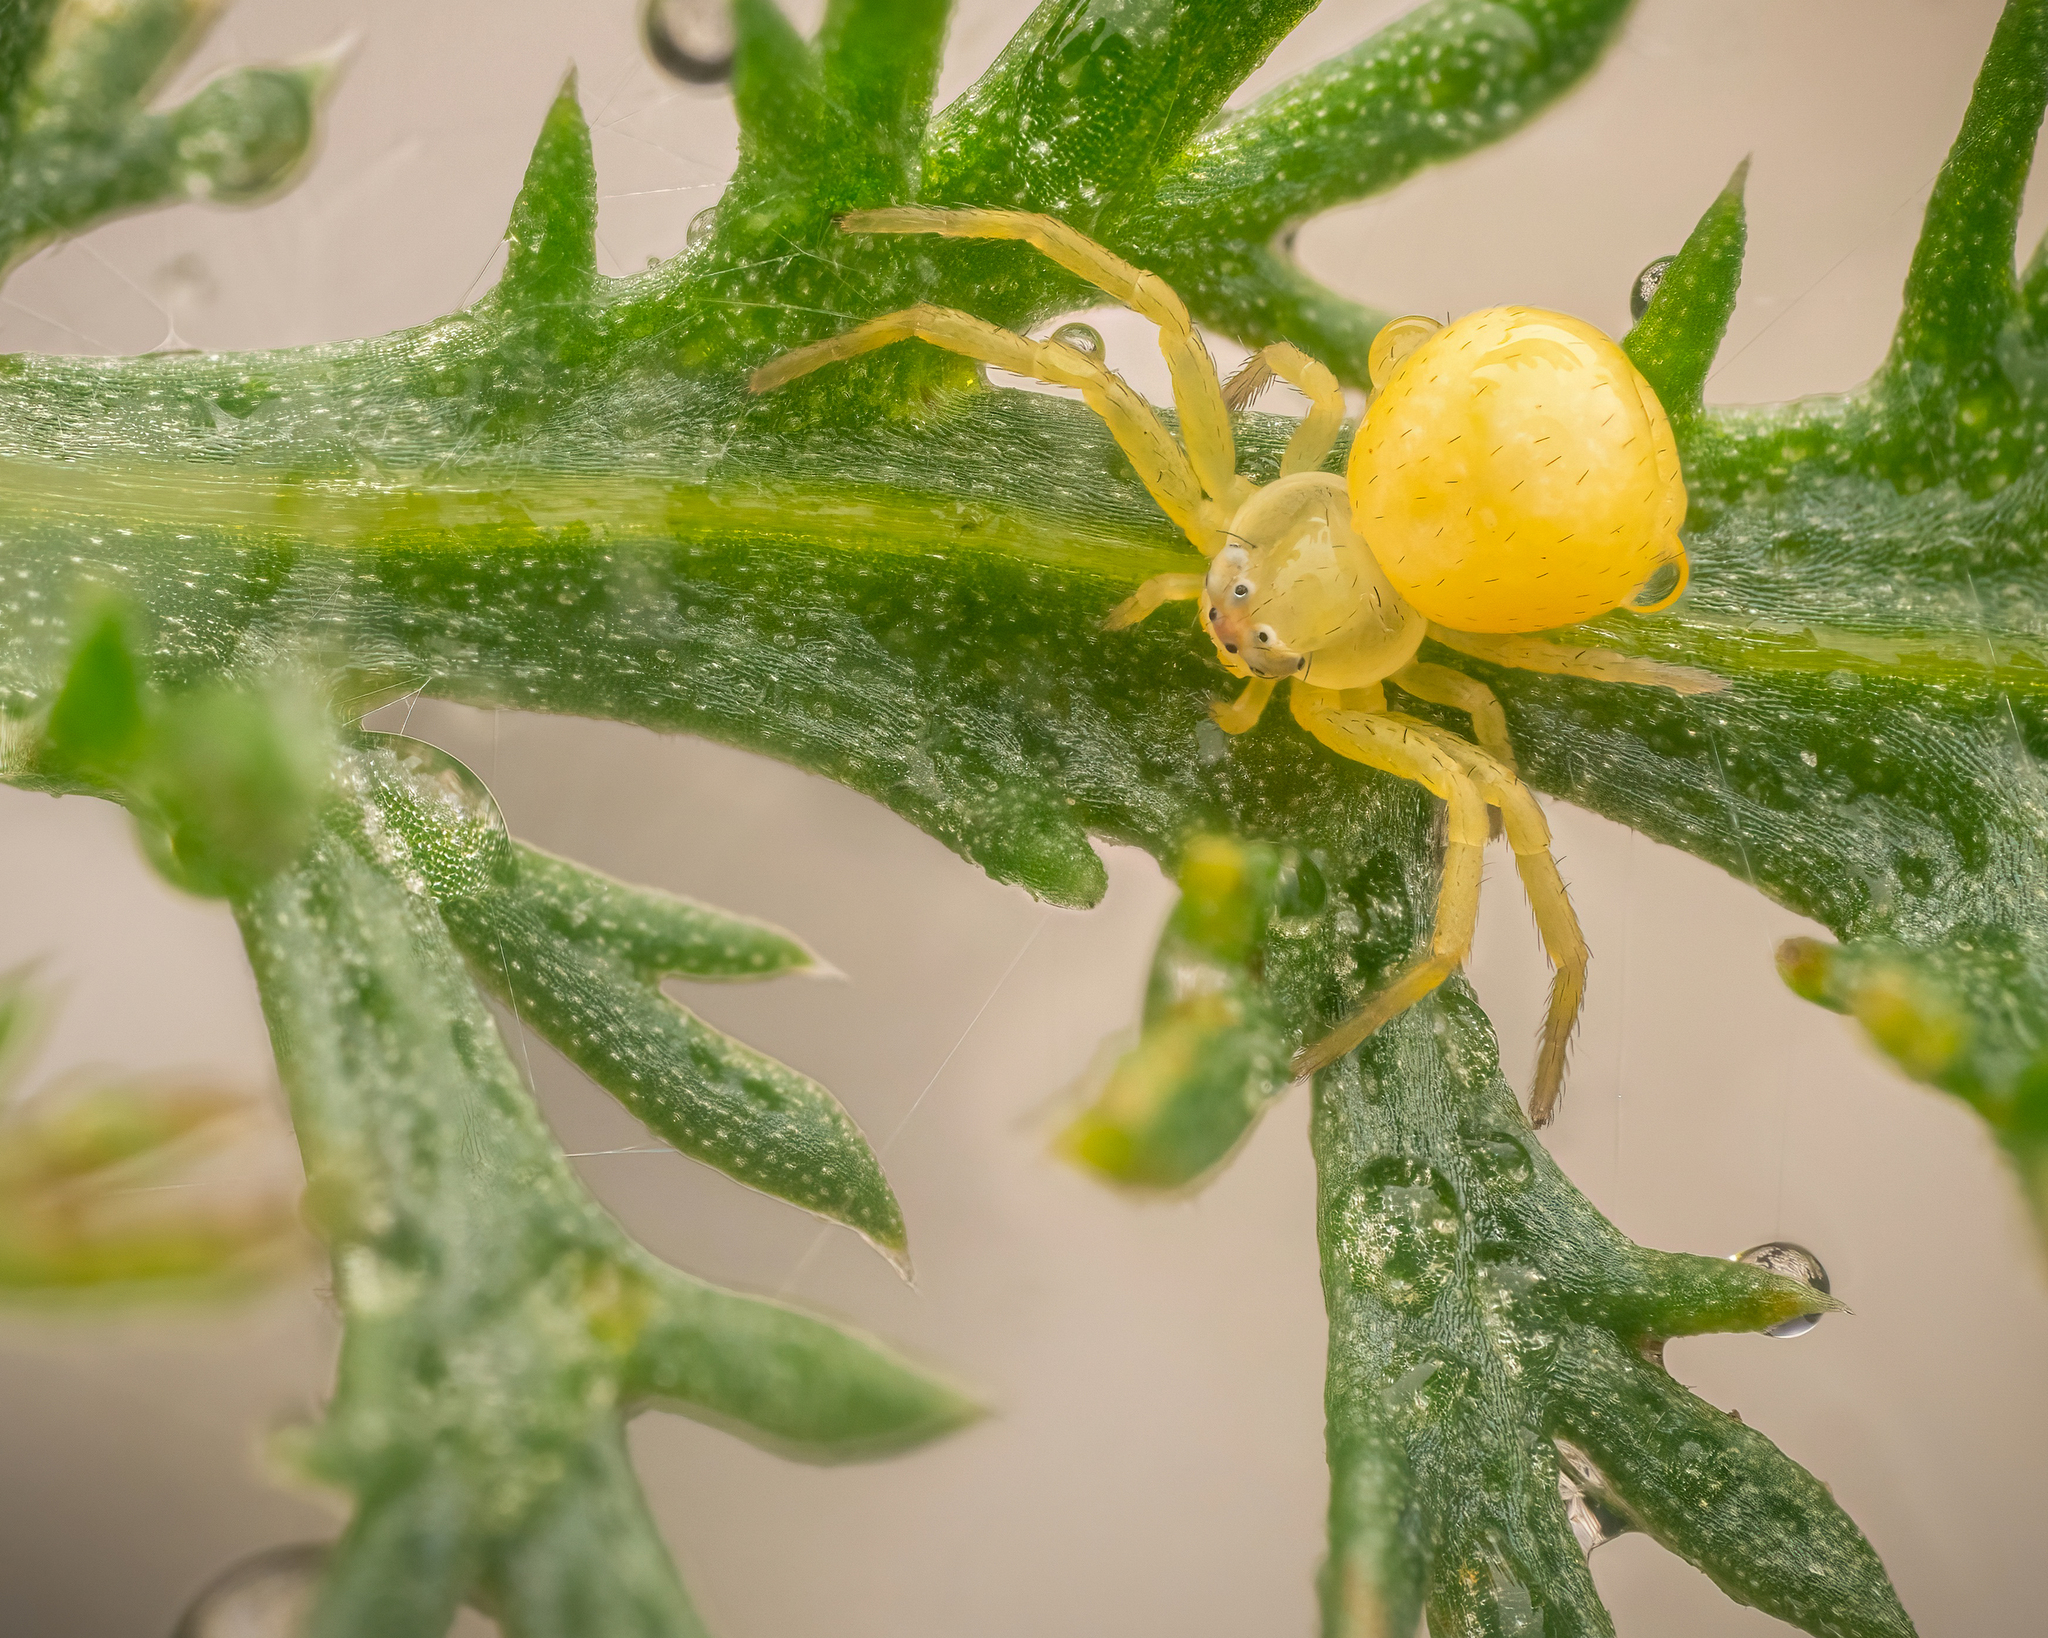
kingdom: Animalia
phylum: Arthropoda
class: Arachnida
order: Araneae
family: Thomisidae
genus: Misumena
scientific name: Misumena vatia
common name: Goldenrod crab spider
